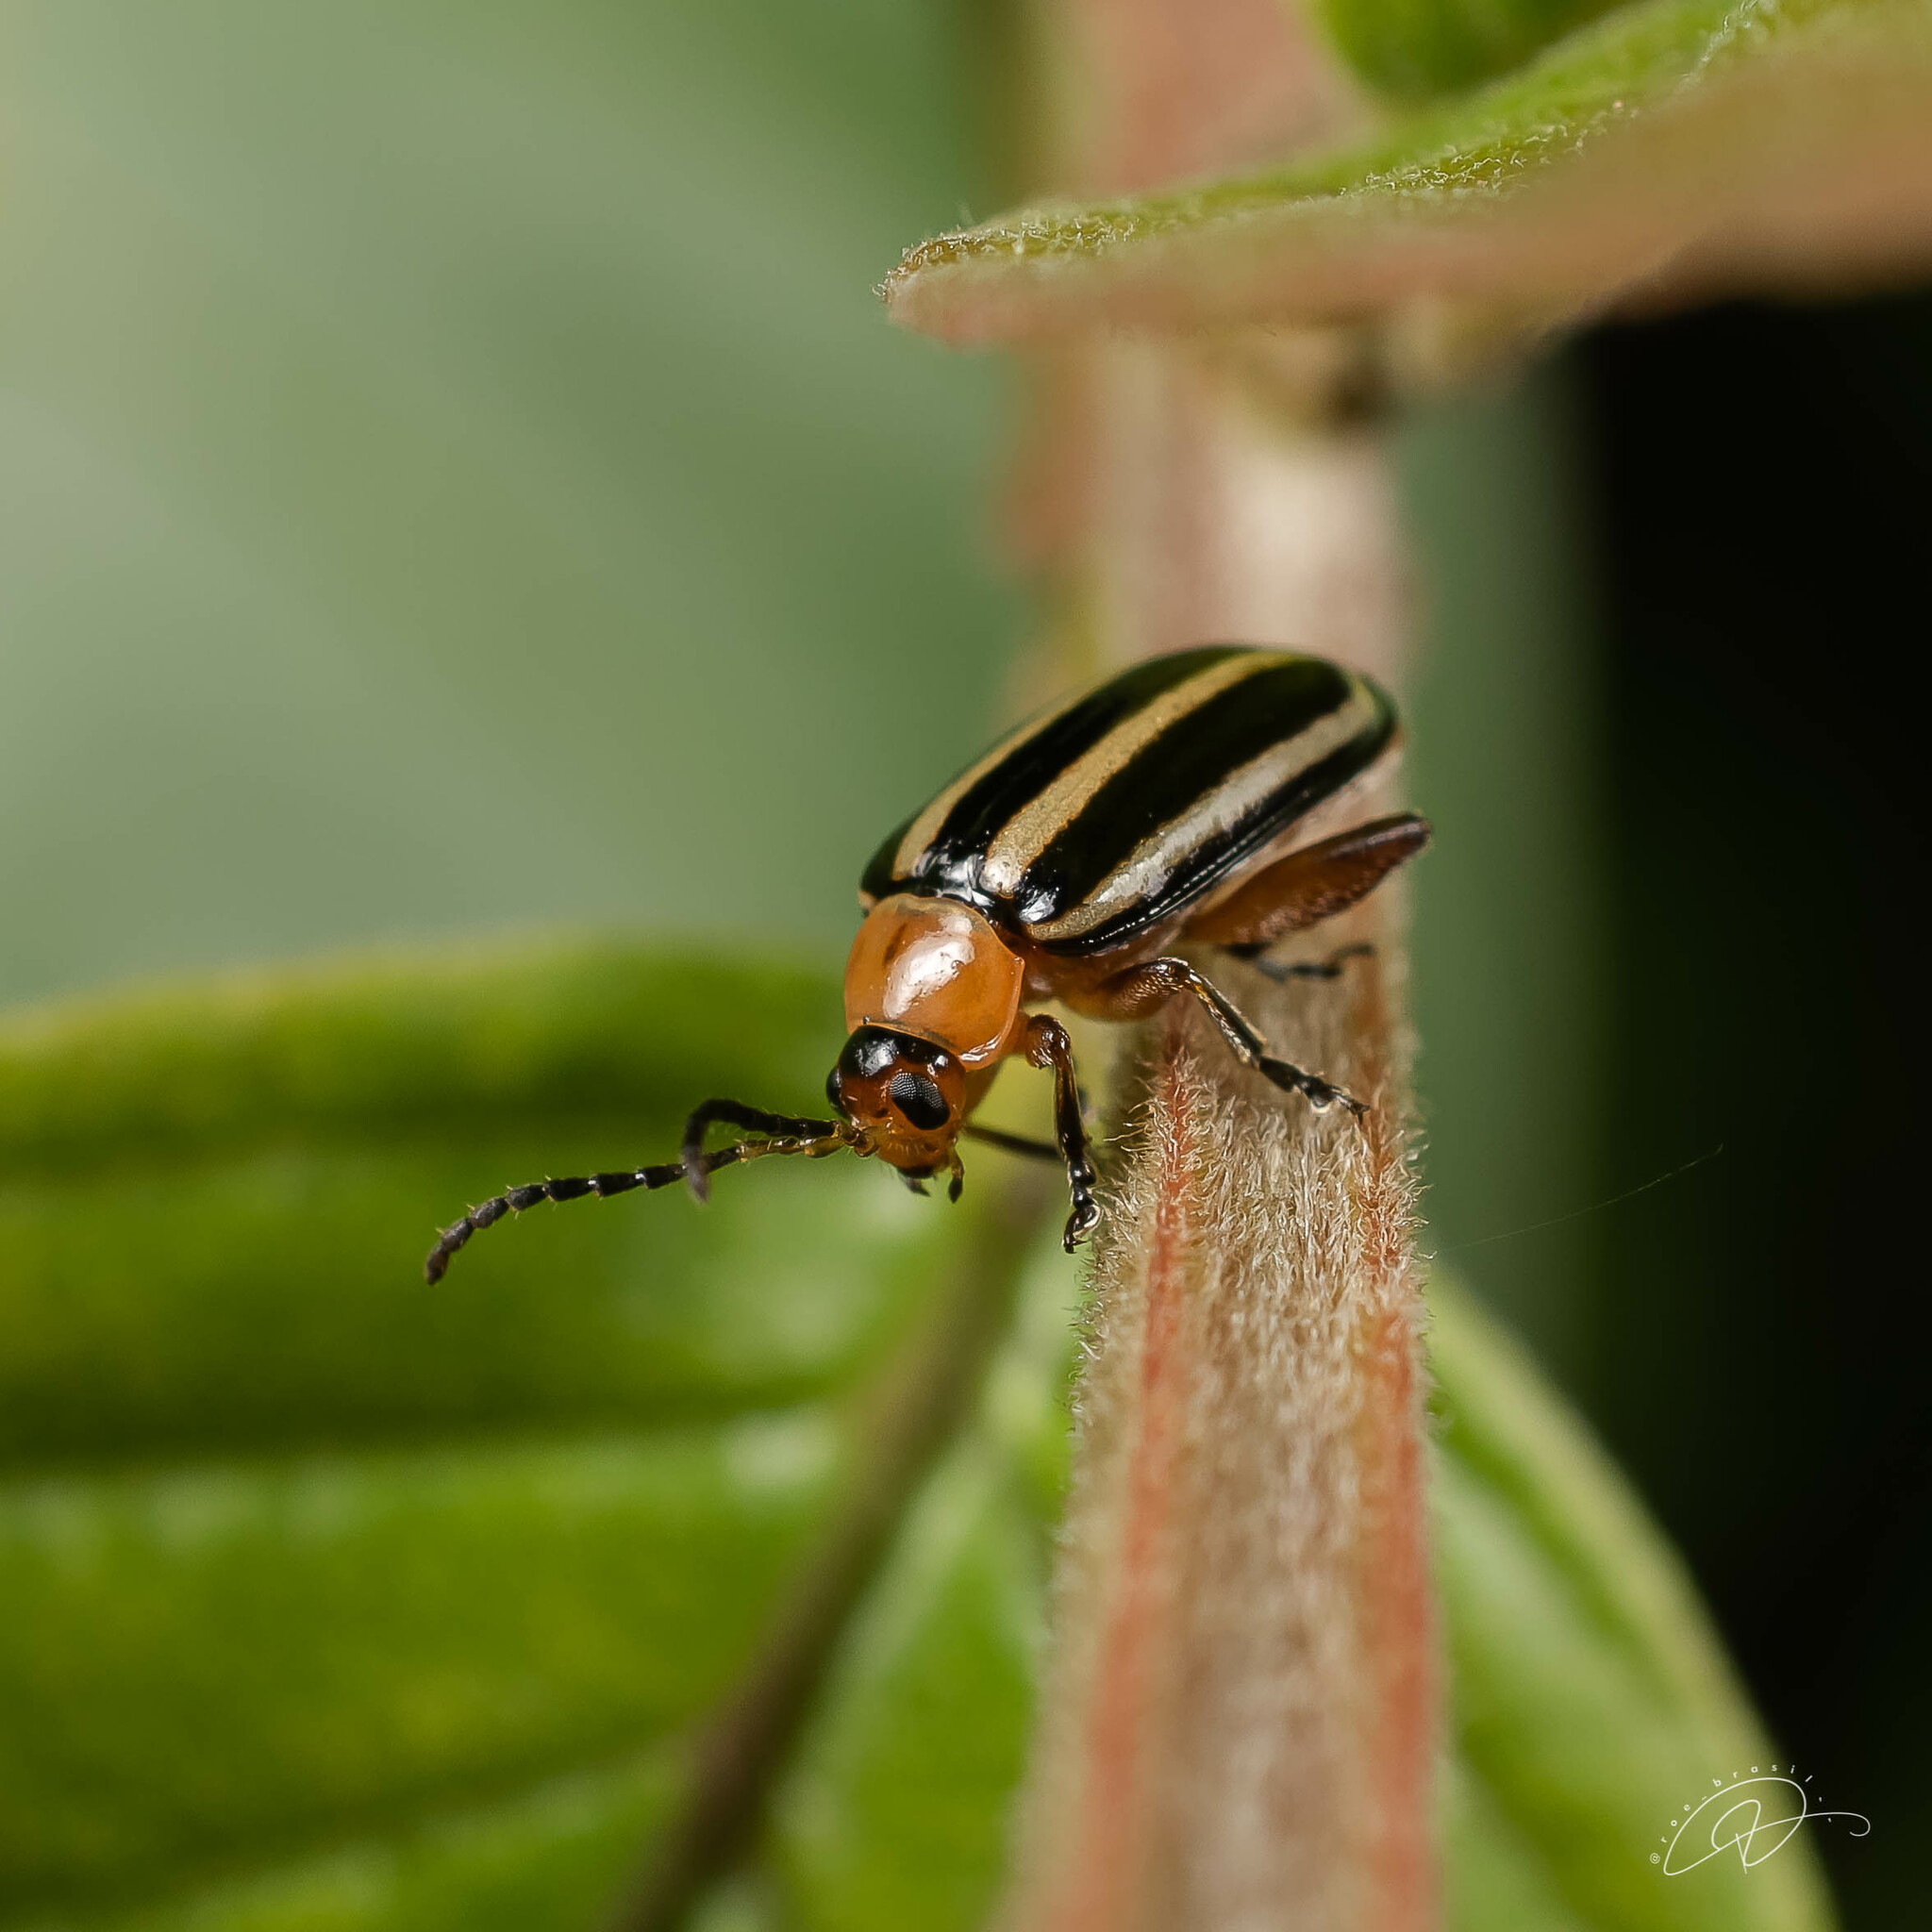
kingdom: Animalia
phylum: Arthropoda
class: Insecta
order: Coleoptera
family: Chrysomelidae
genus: Disonycha
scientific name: Disonycha glabrata
